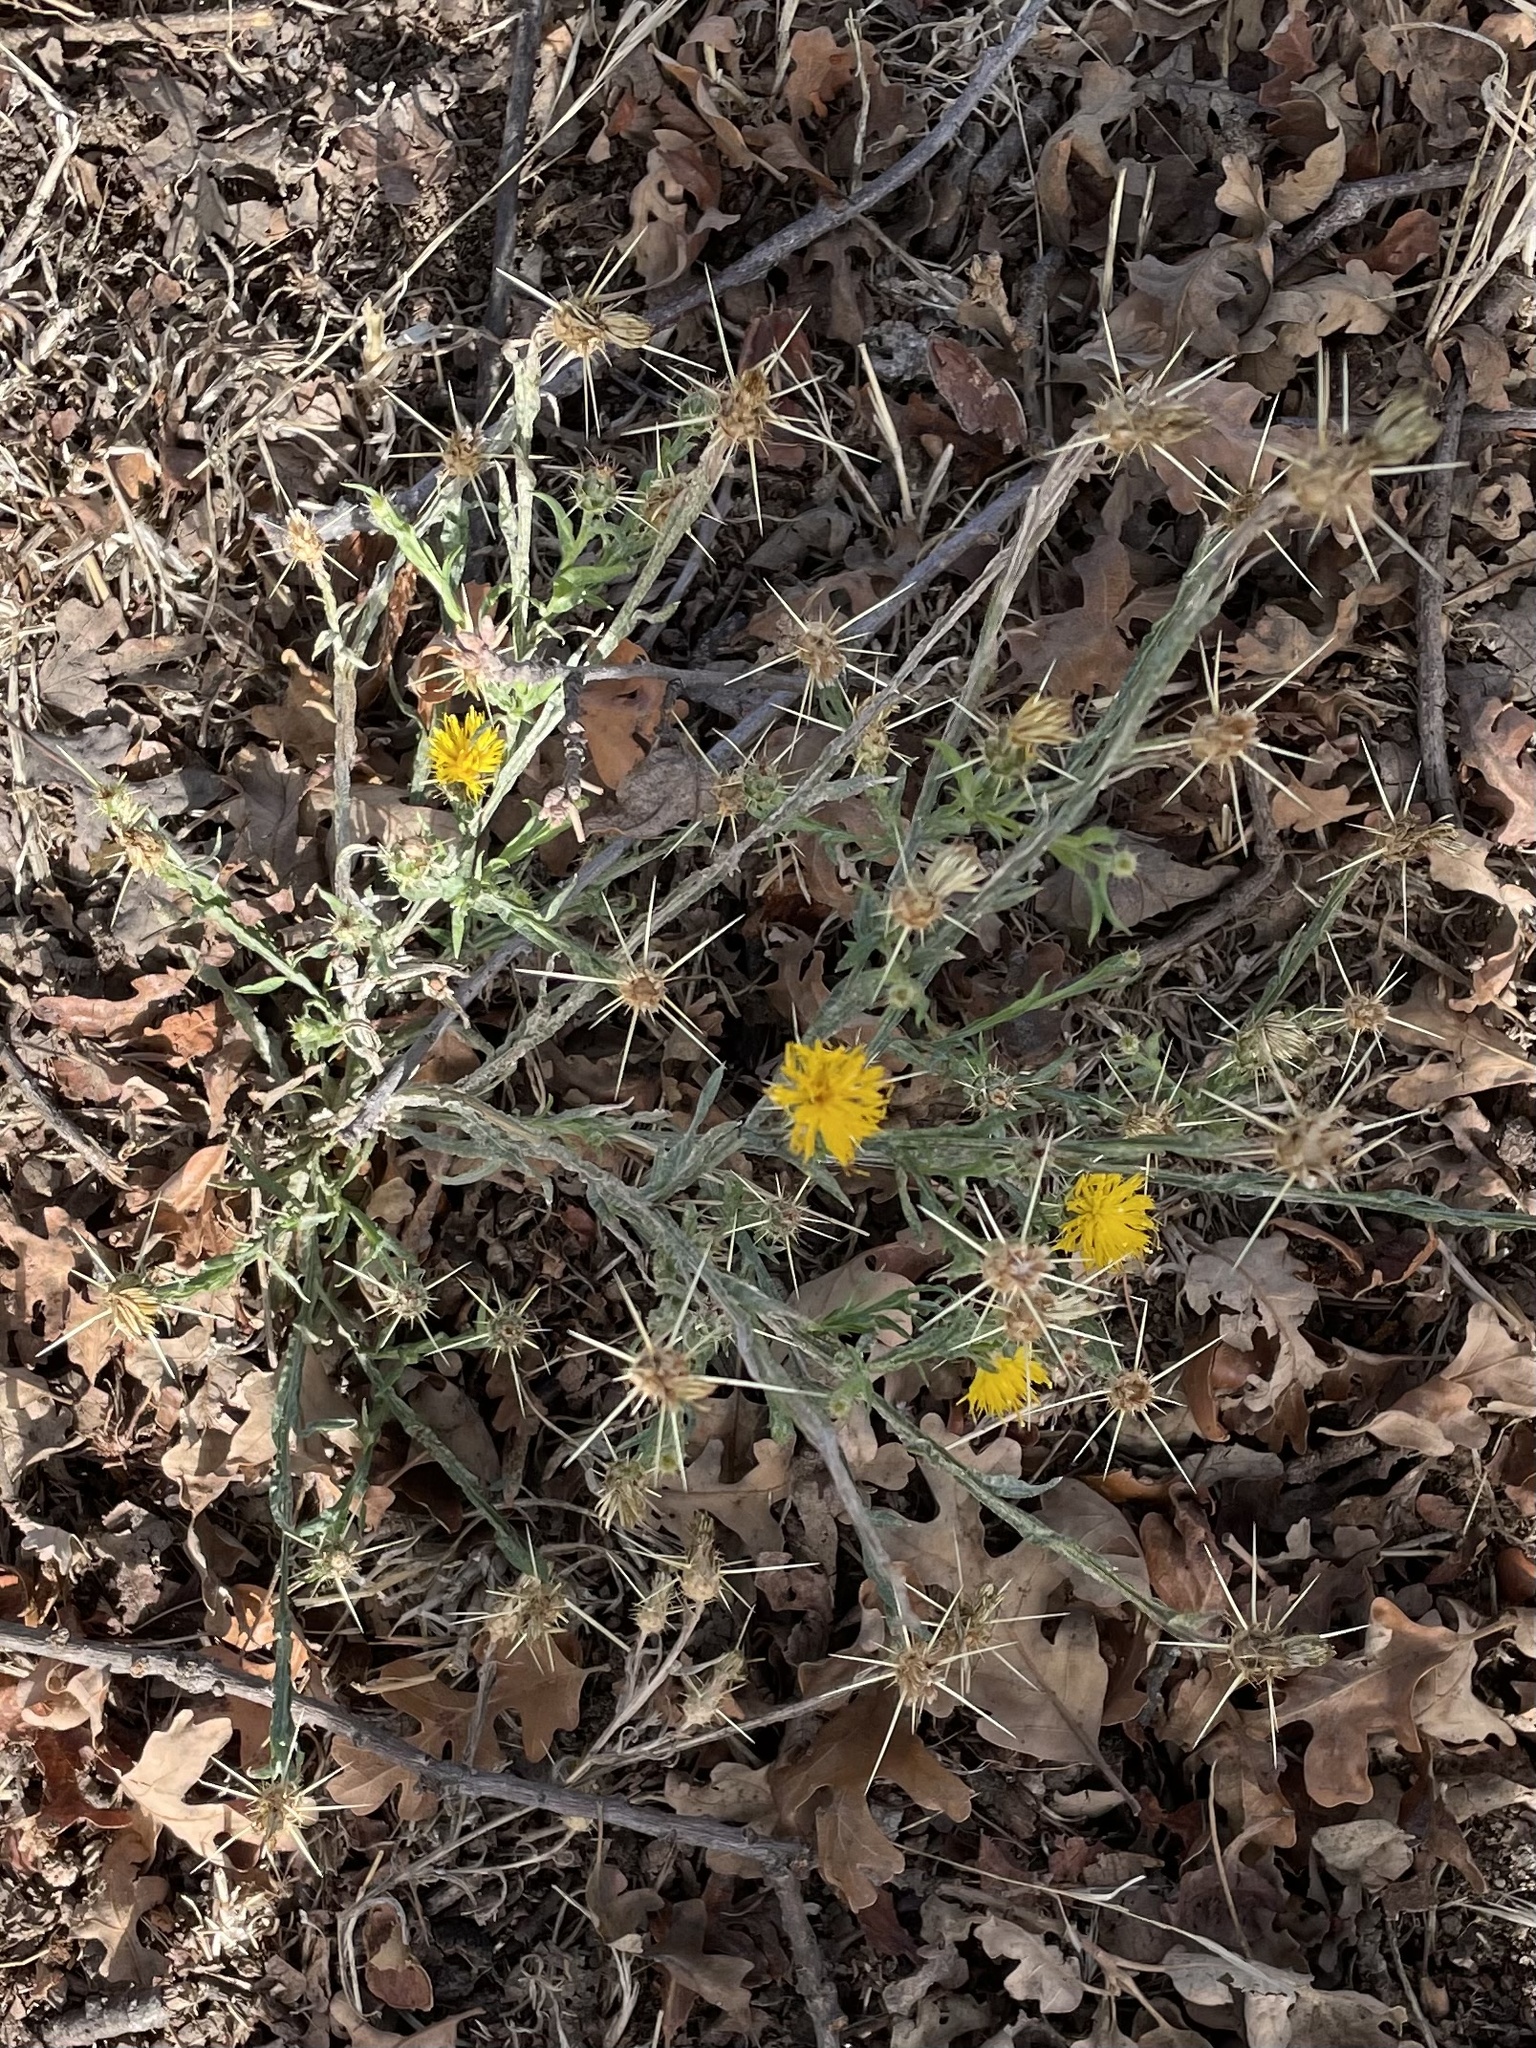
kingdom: Plantae
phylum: Tracheophyta
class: Magnoliopsida
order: Asterales
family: Asteraceae
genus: Centaurea
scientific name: Centaurea solstitialis
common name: Yellow star-thistle
